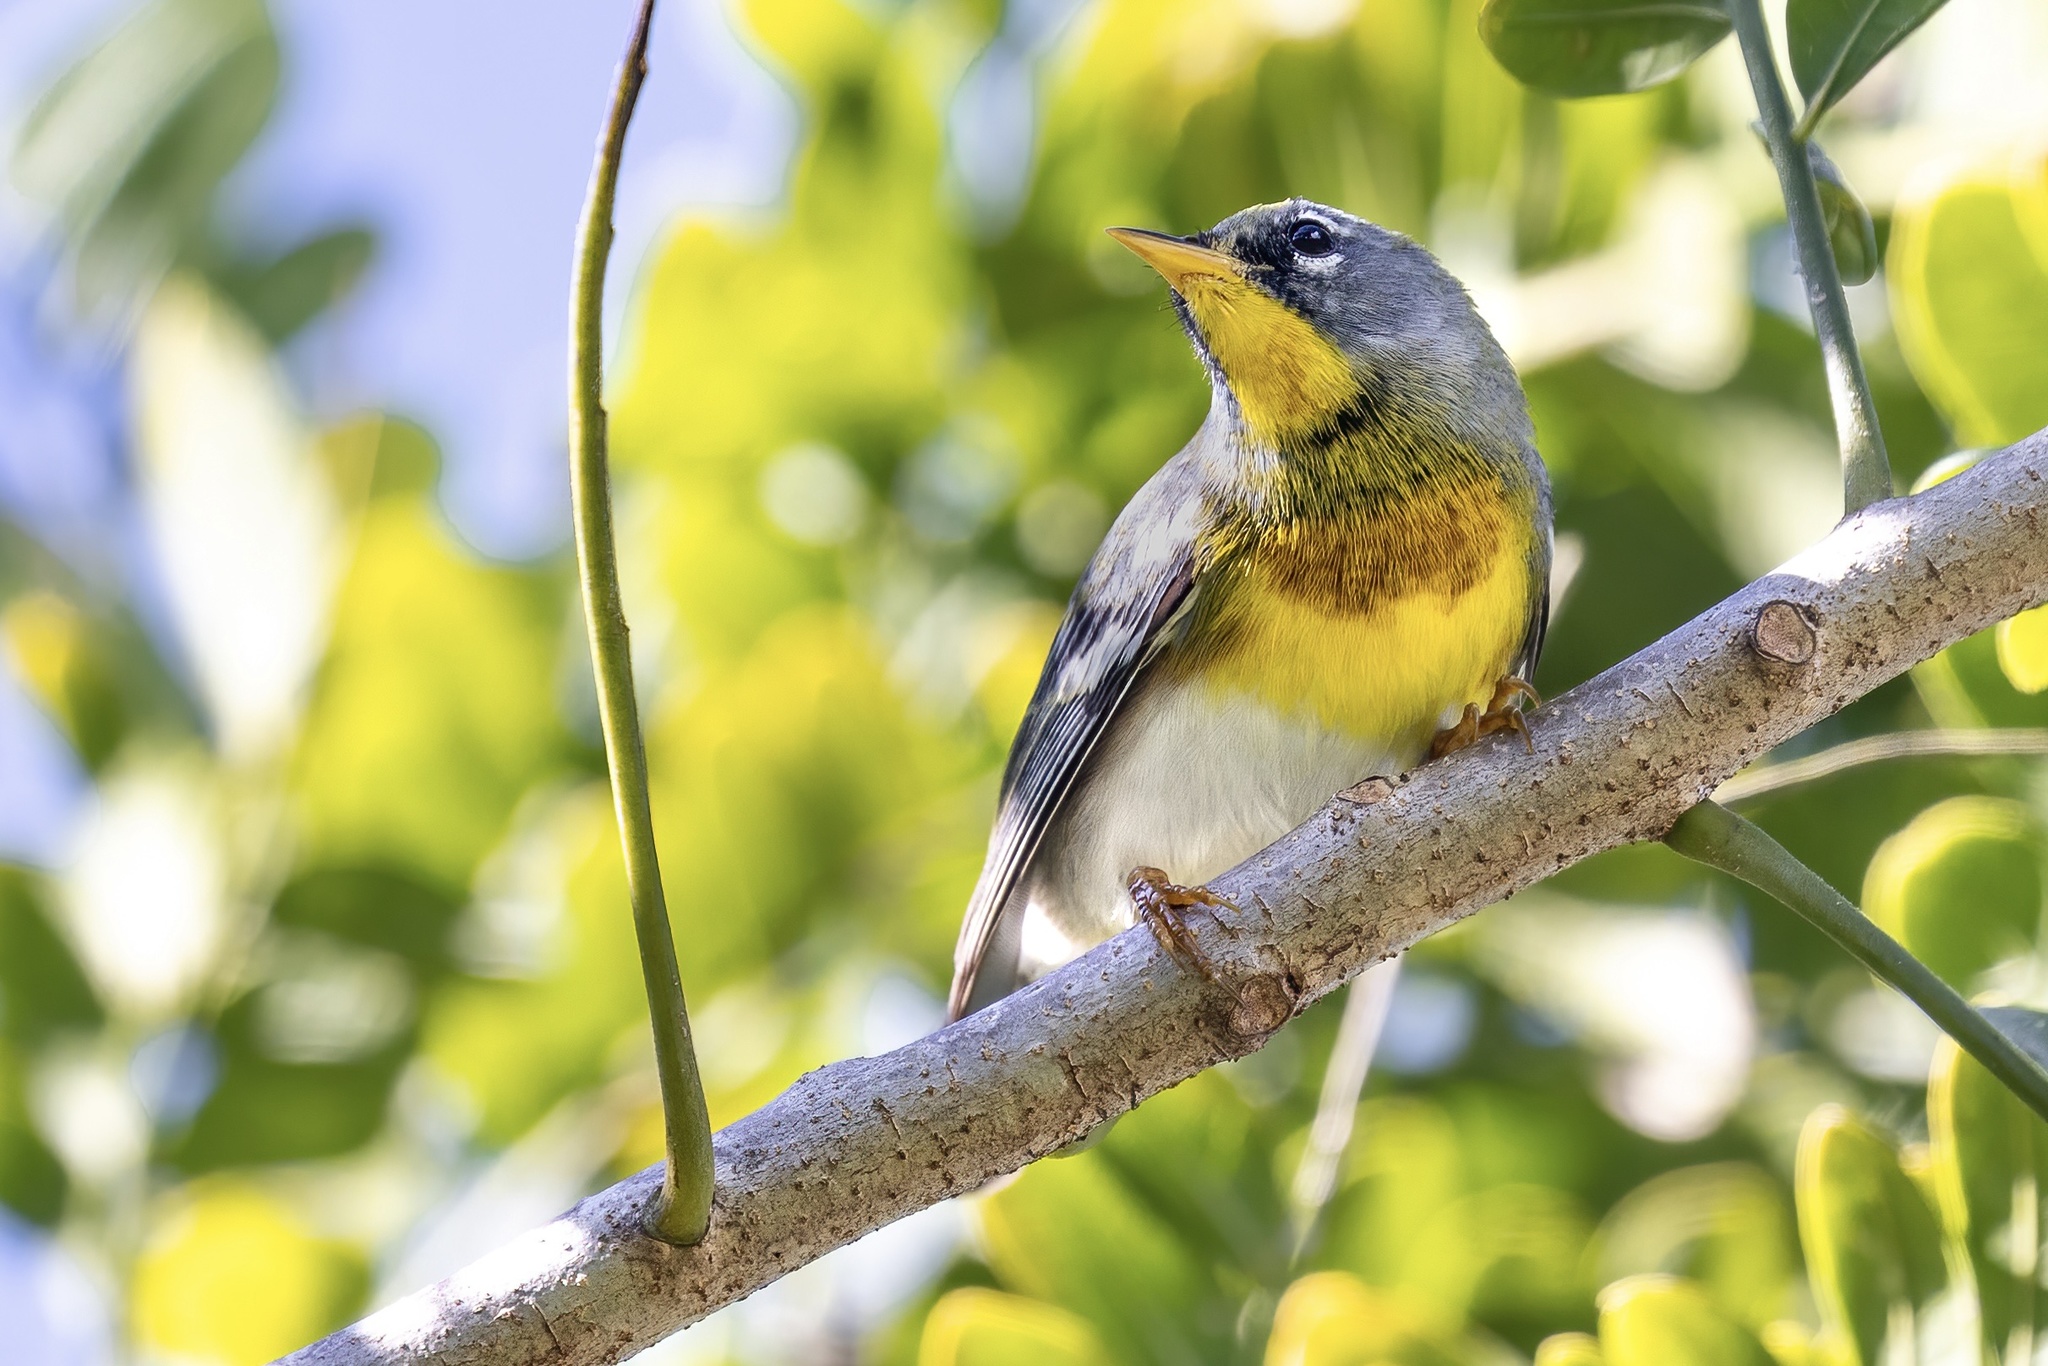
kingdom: Animalia
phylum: Chordata
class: Aves
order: Passeriformes
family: Parulidae
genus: Setophaga
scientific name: Setophaga americana
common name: Northern parula
